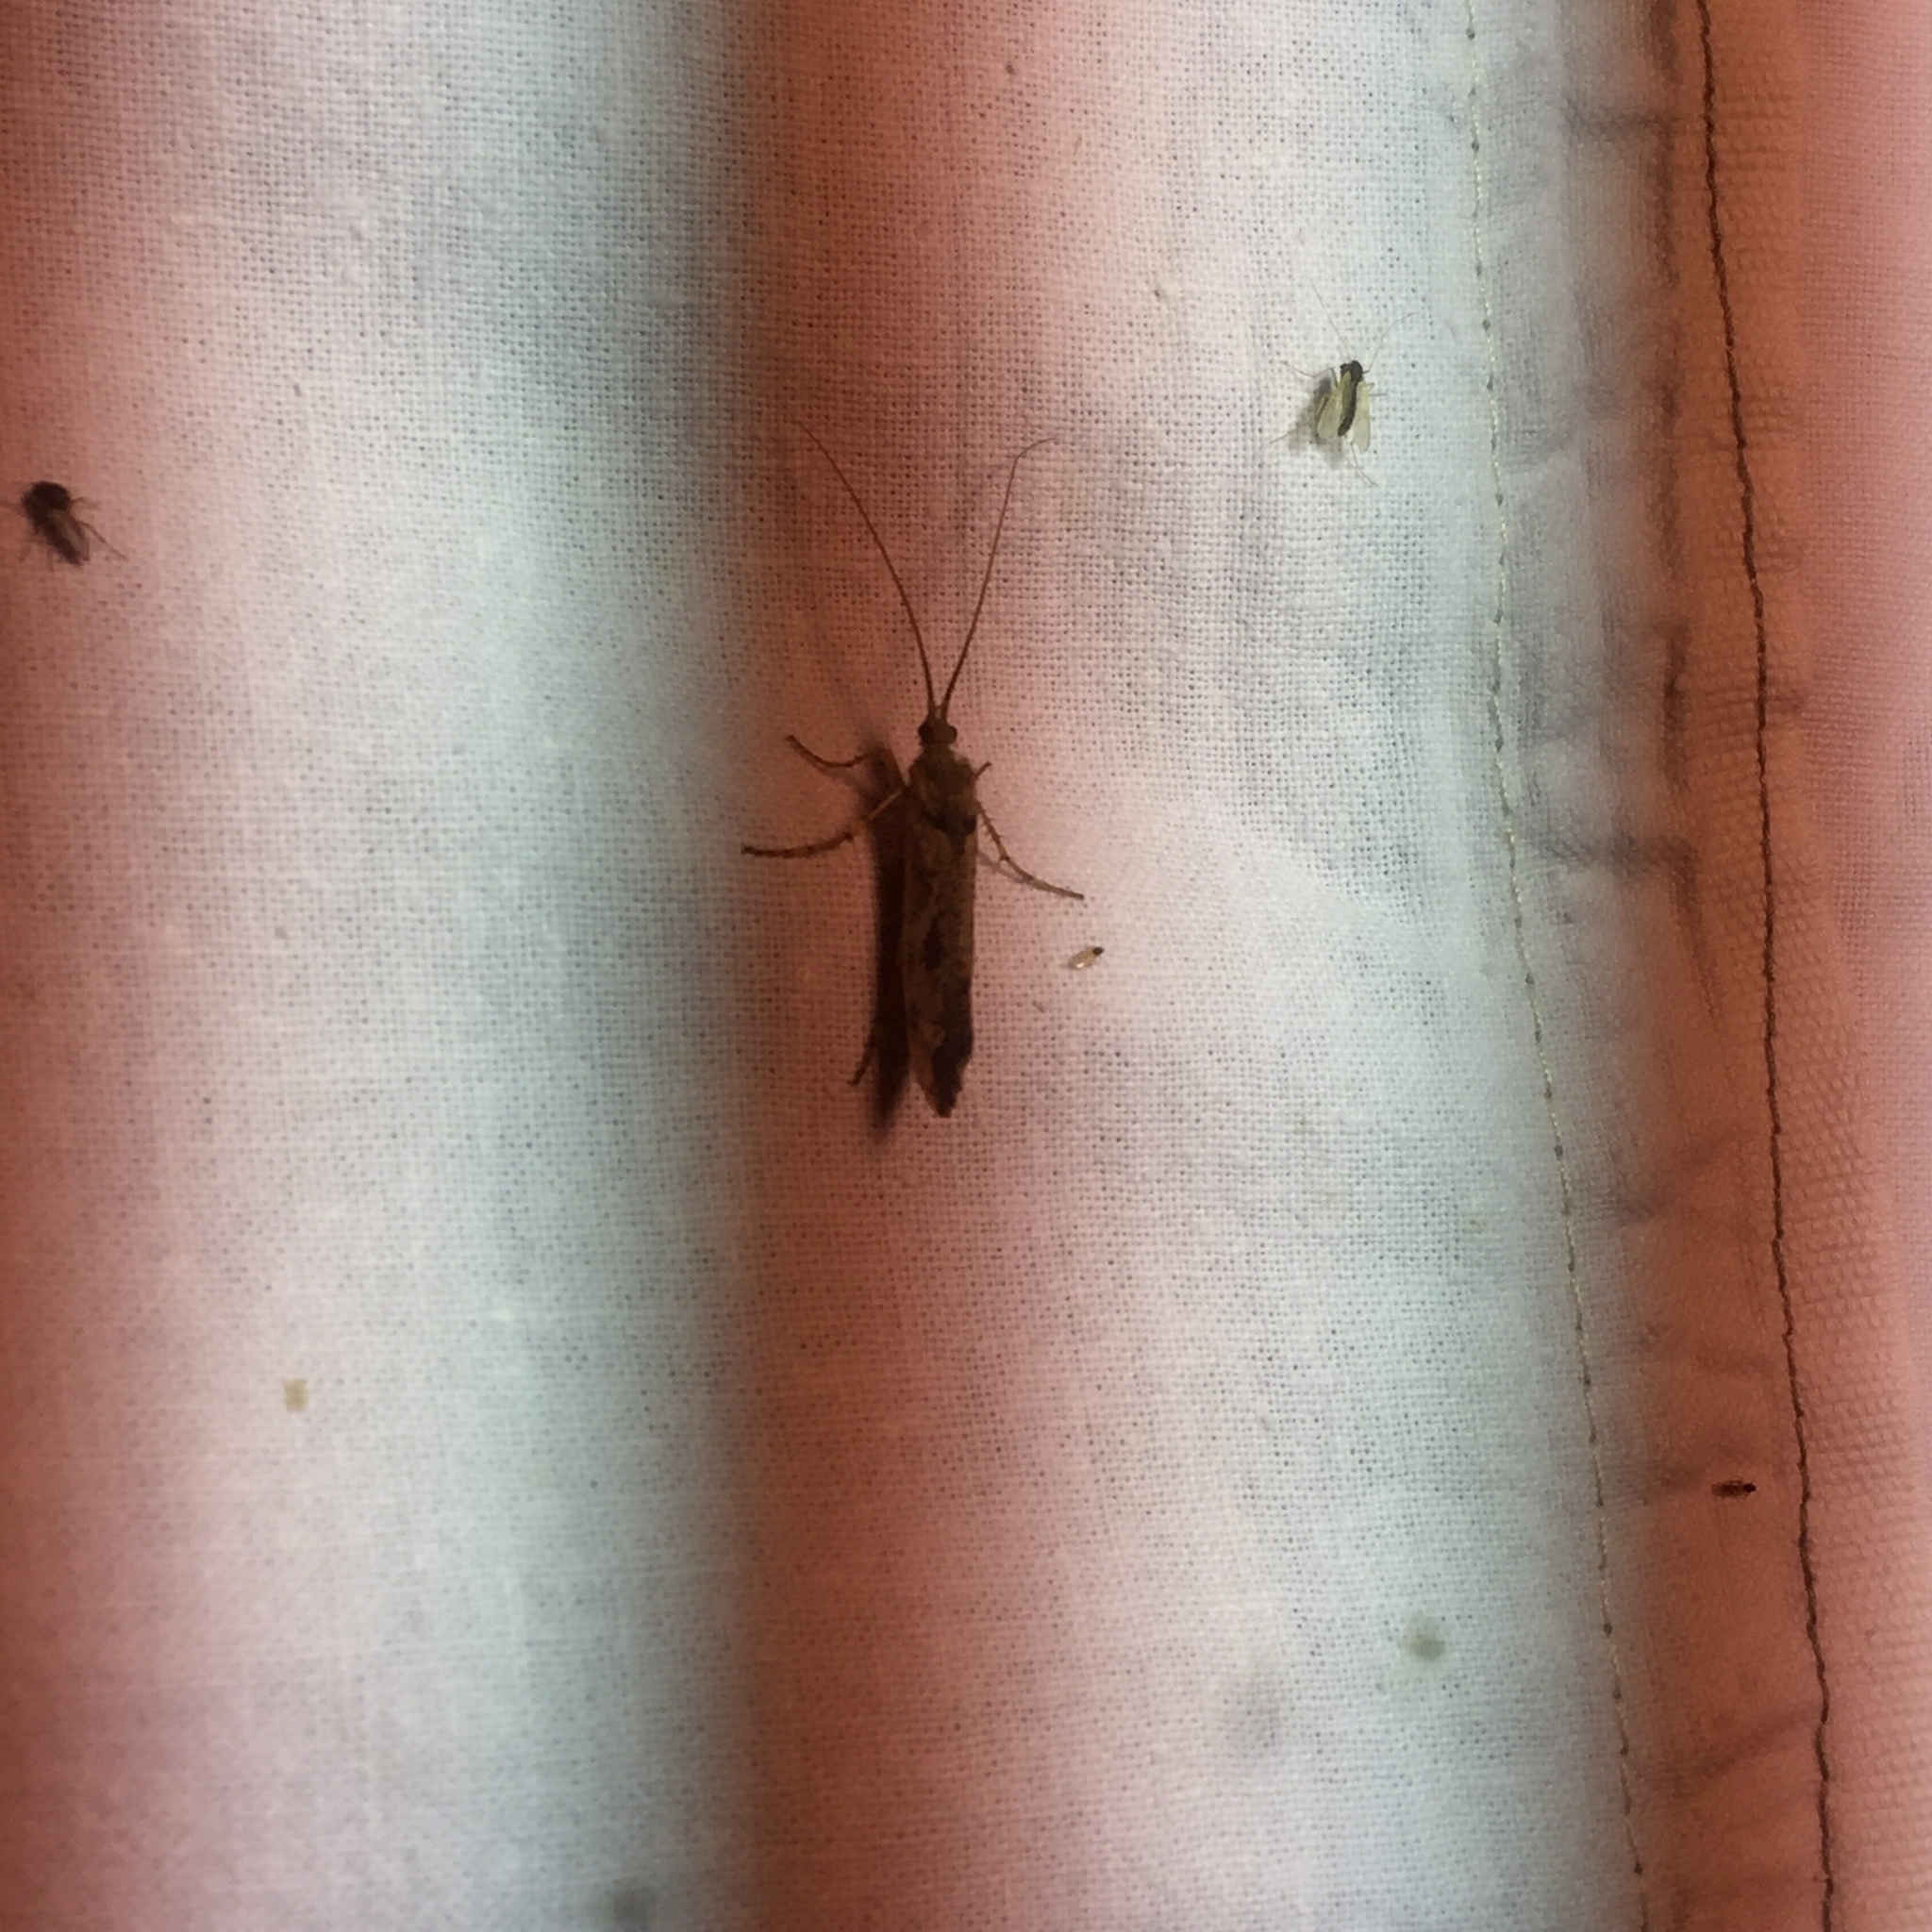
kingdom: Animalia
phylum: Arthropoda
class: Insecta
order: Trichoptera
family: Limnephilidae
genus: Glyphotaelius
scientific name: Glyphotaelius pellucidus
